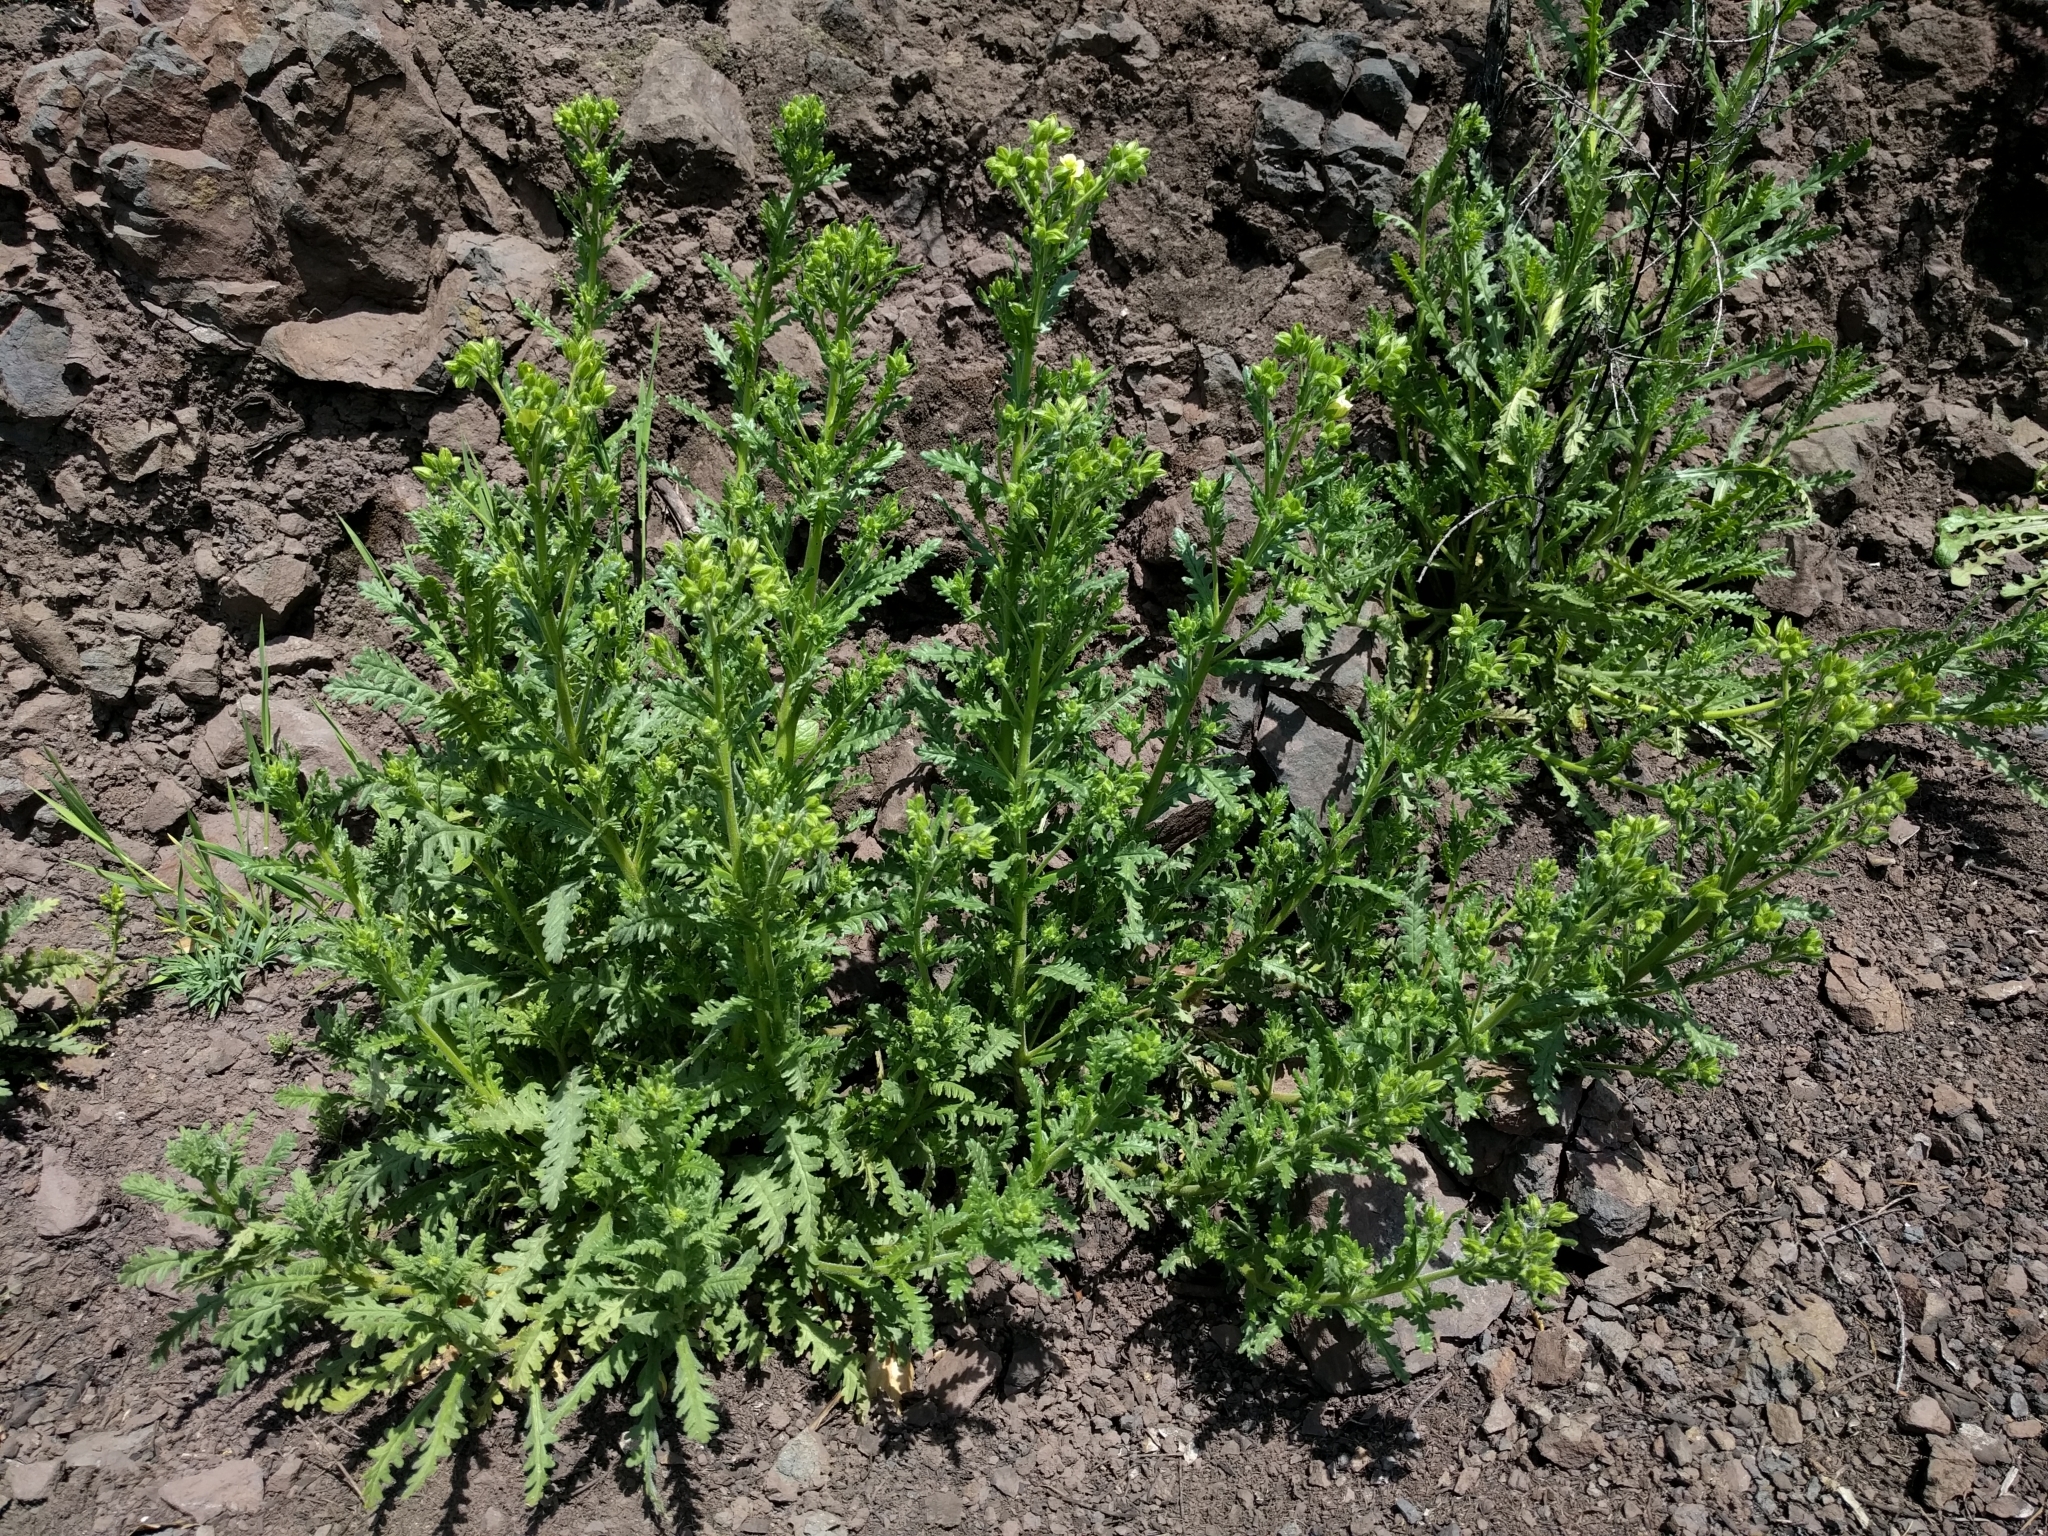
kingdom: Plantae
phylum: Tracheophyta
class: Magnoliopsida
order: Boraginales
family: Hydrophyllaceae
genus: Emmenanthe
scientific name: Emmenanthe penduliflora
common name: Whispering-bells
